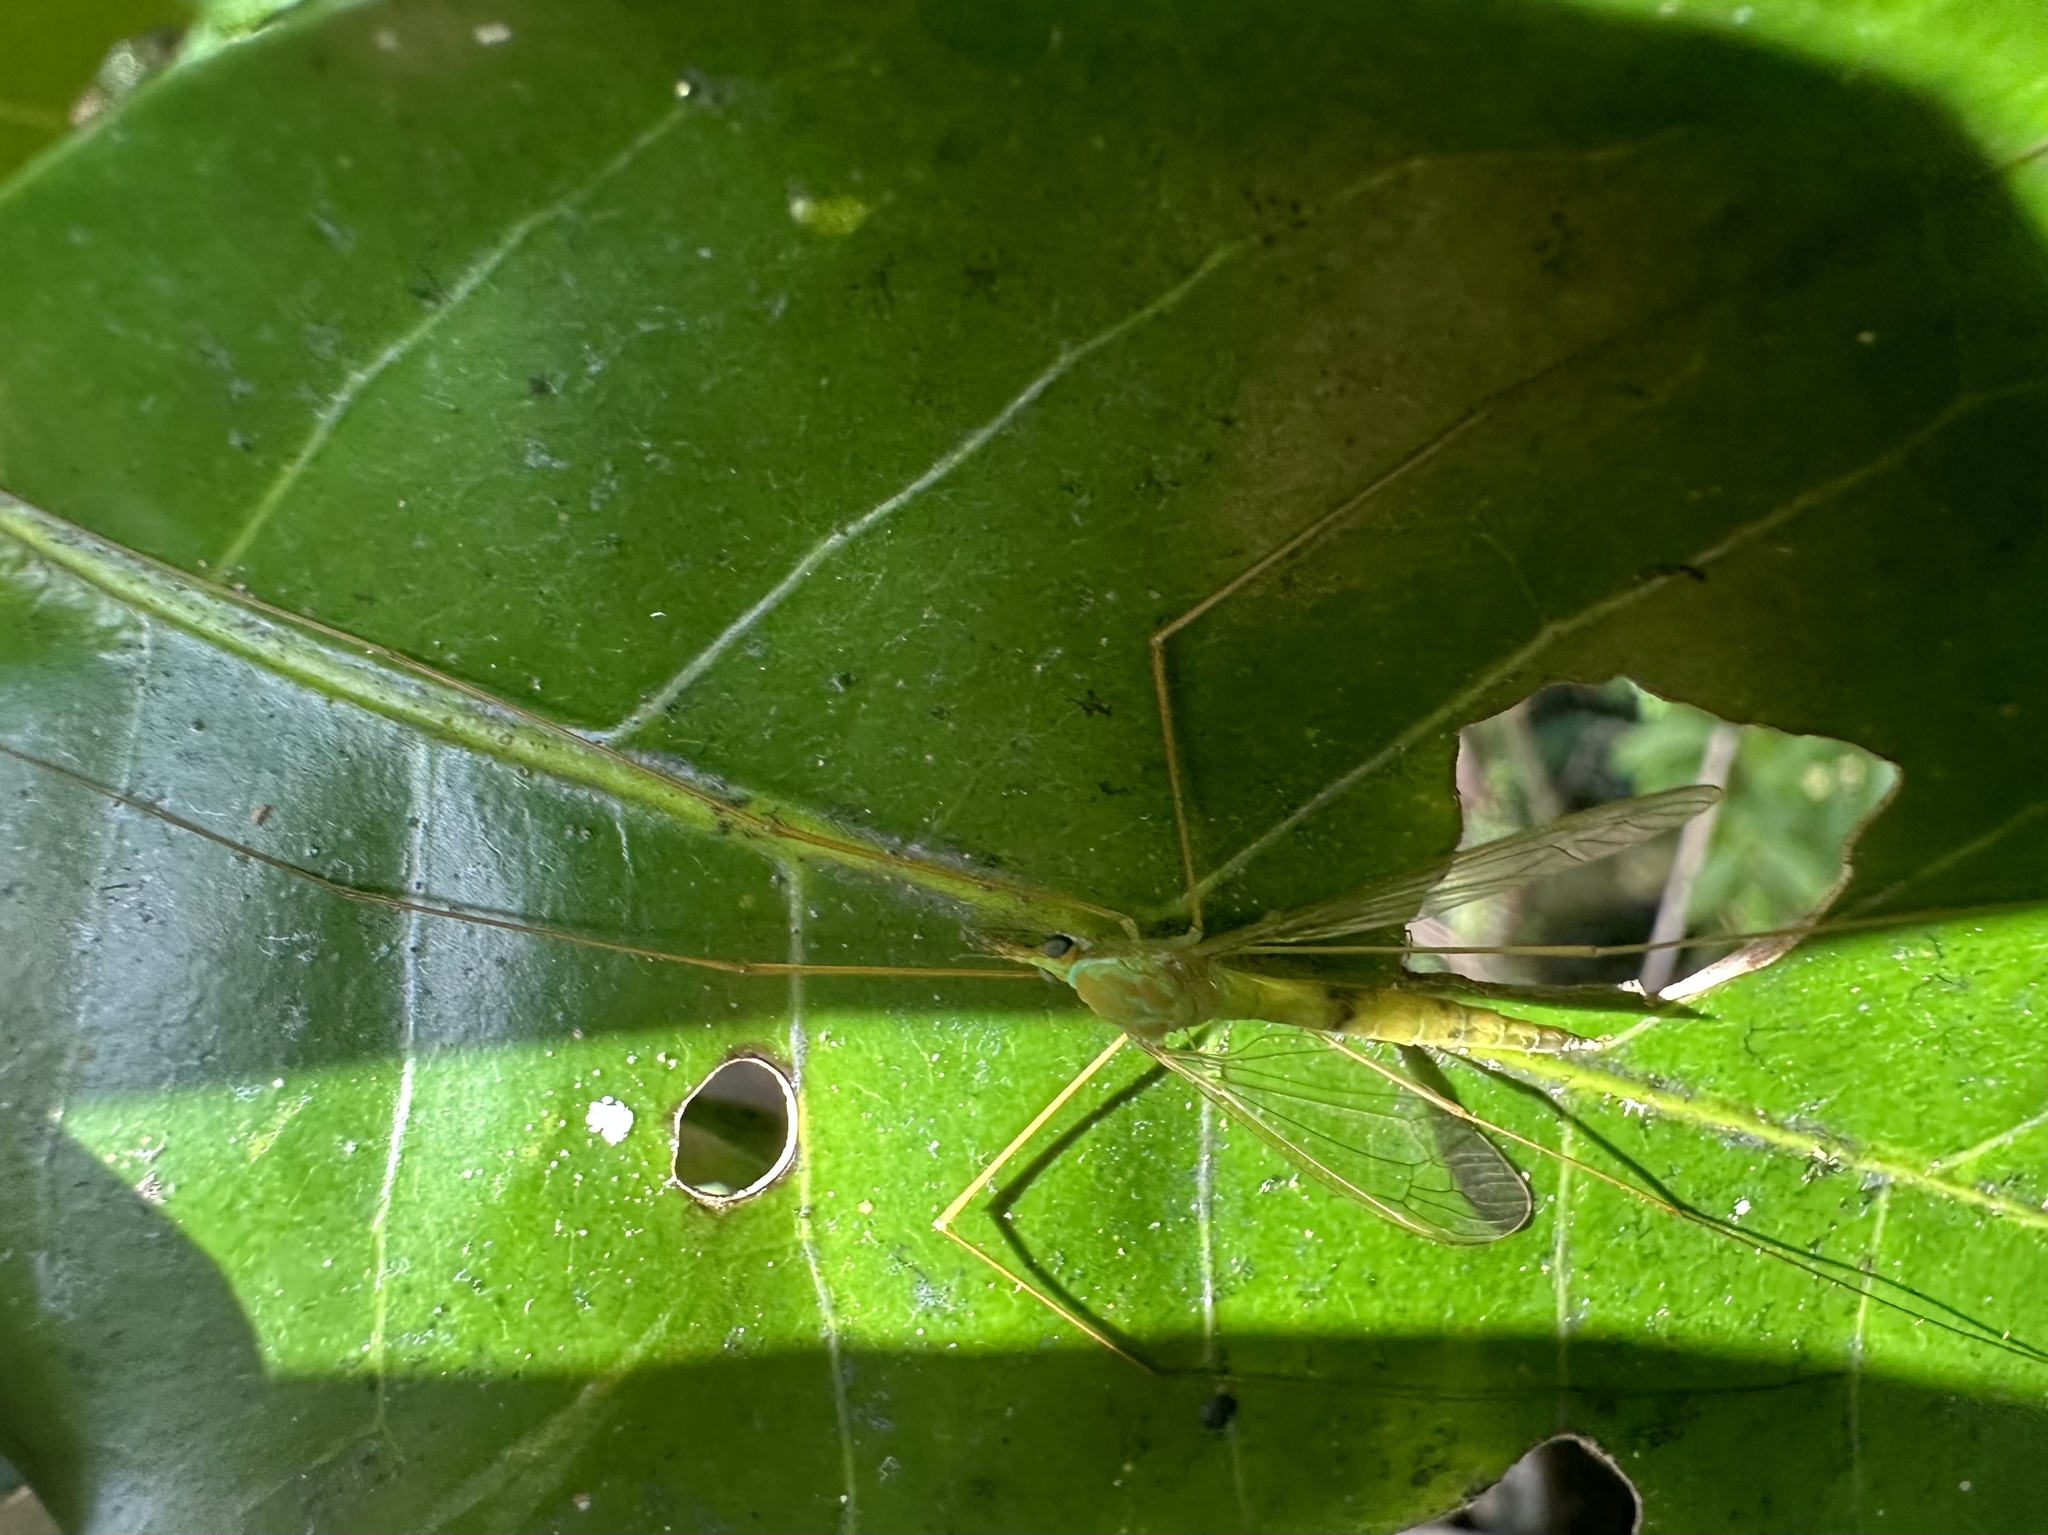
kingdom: Animalia
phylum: Arthropoda
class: Insecta
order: Diptera
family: Tipulidae
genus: Leptotarsus
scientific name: Leptotarsus virescens
